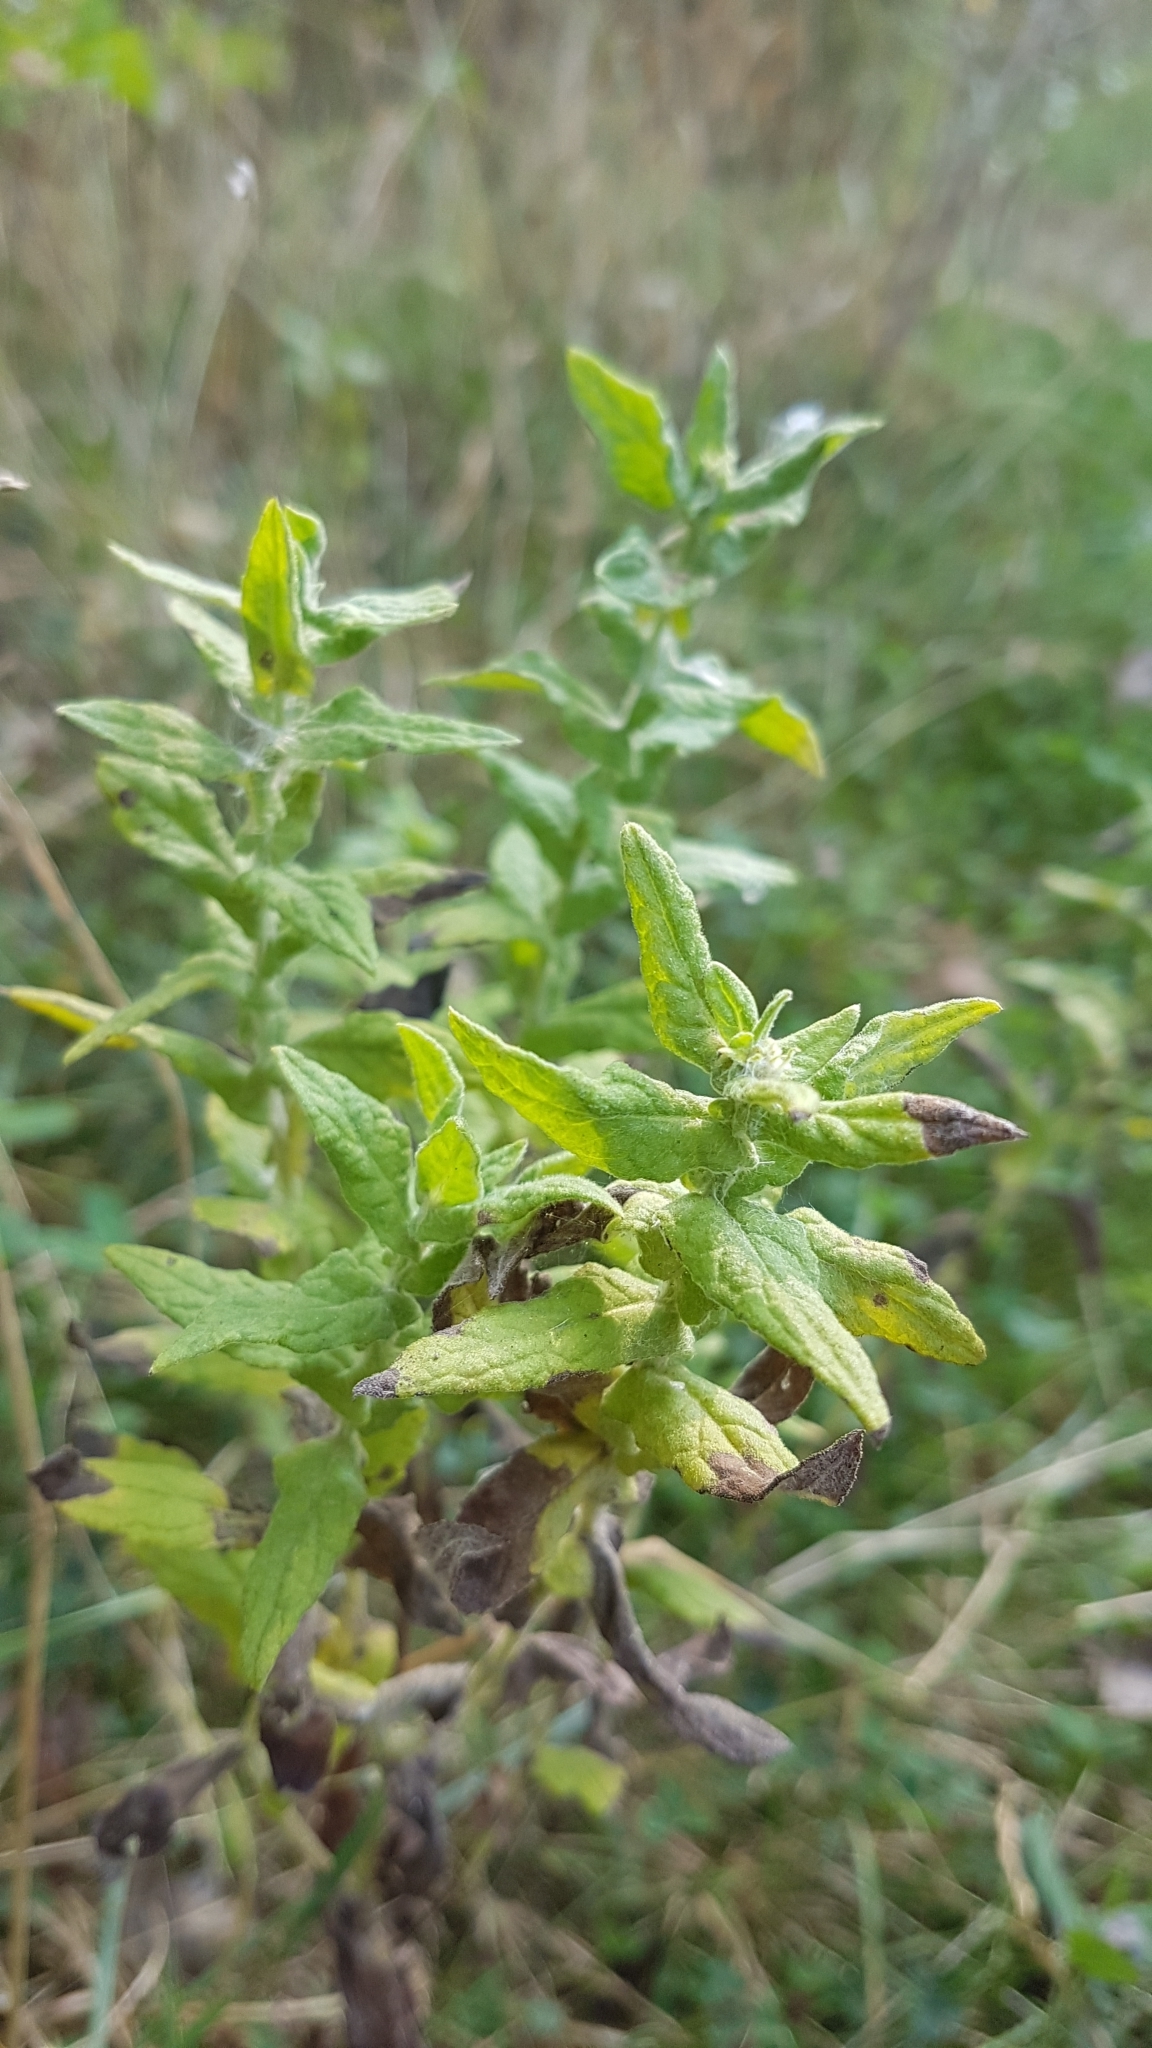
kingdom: Plantae
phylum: Tracheophyta
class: Magnoliopsida
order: Asterales
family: Asteraceae
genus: Pulicaria
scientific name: Pulicaria dysenterica
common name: Common fleabane
